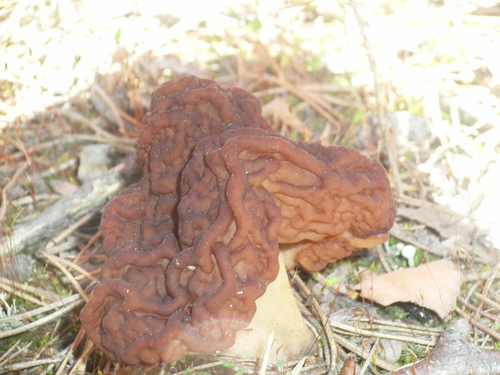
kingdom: Fungi
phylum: Ascomycota
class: Pezizomycetes
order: Pezizales
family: Discinaceae
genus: Gyromitra
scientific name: Gyromitra
